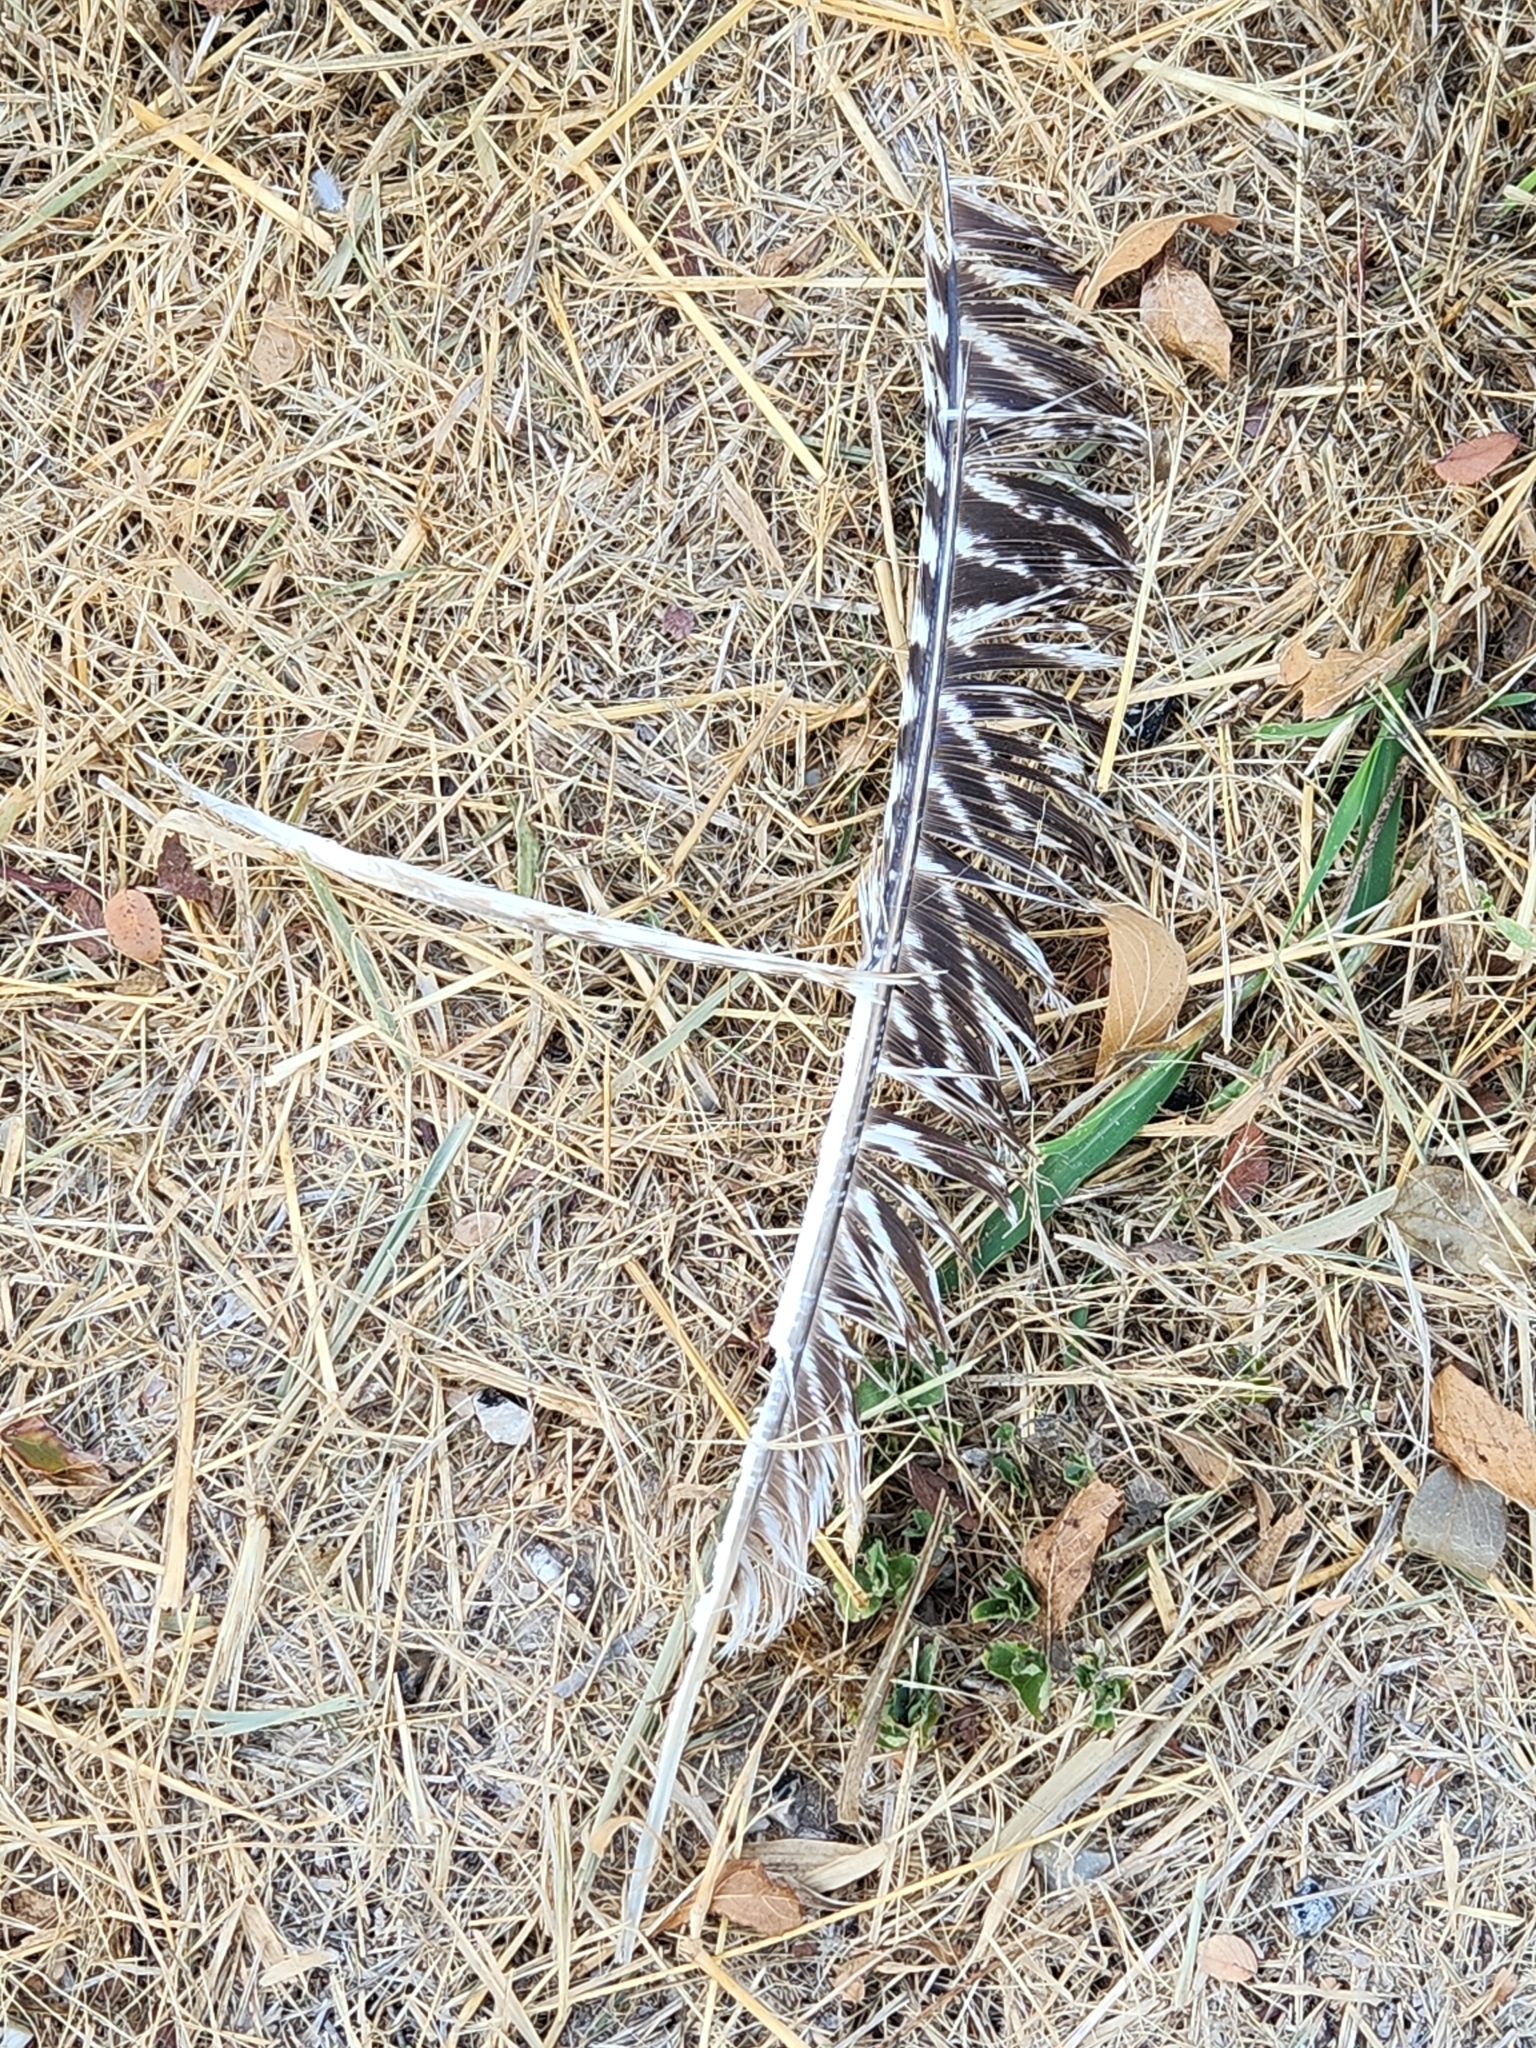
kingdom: Animalia
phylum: Chordata
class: Aves
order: Galliformes
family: Phasianidae
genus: Meleagris
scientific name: Meleagris gallopavo
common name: Wild turkey
